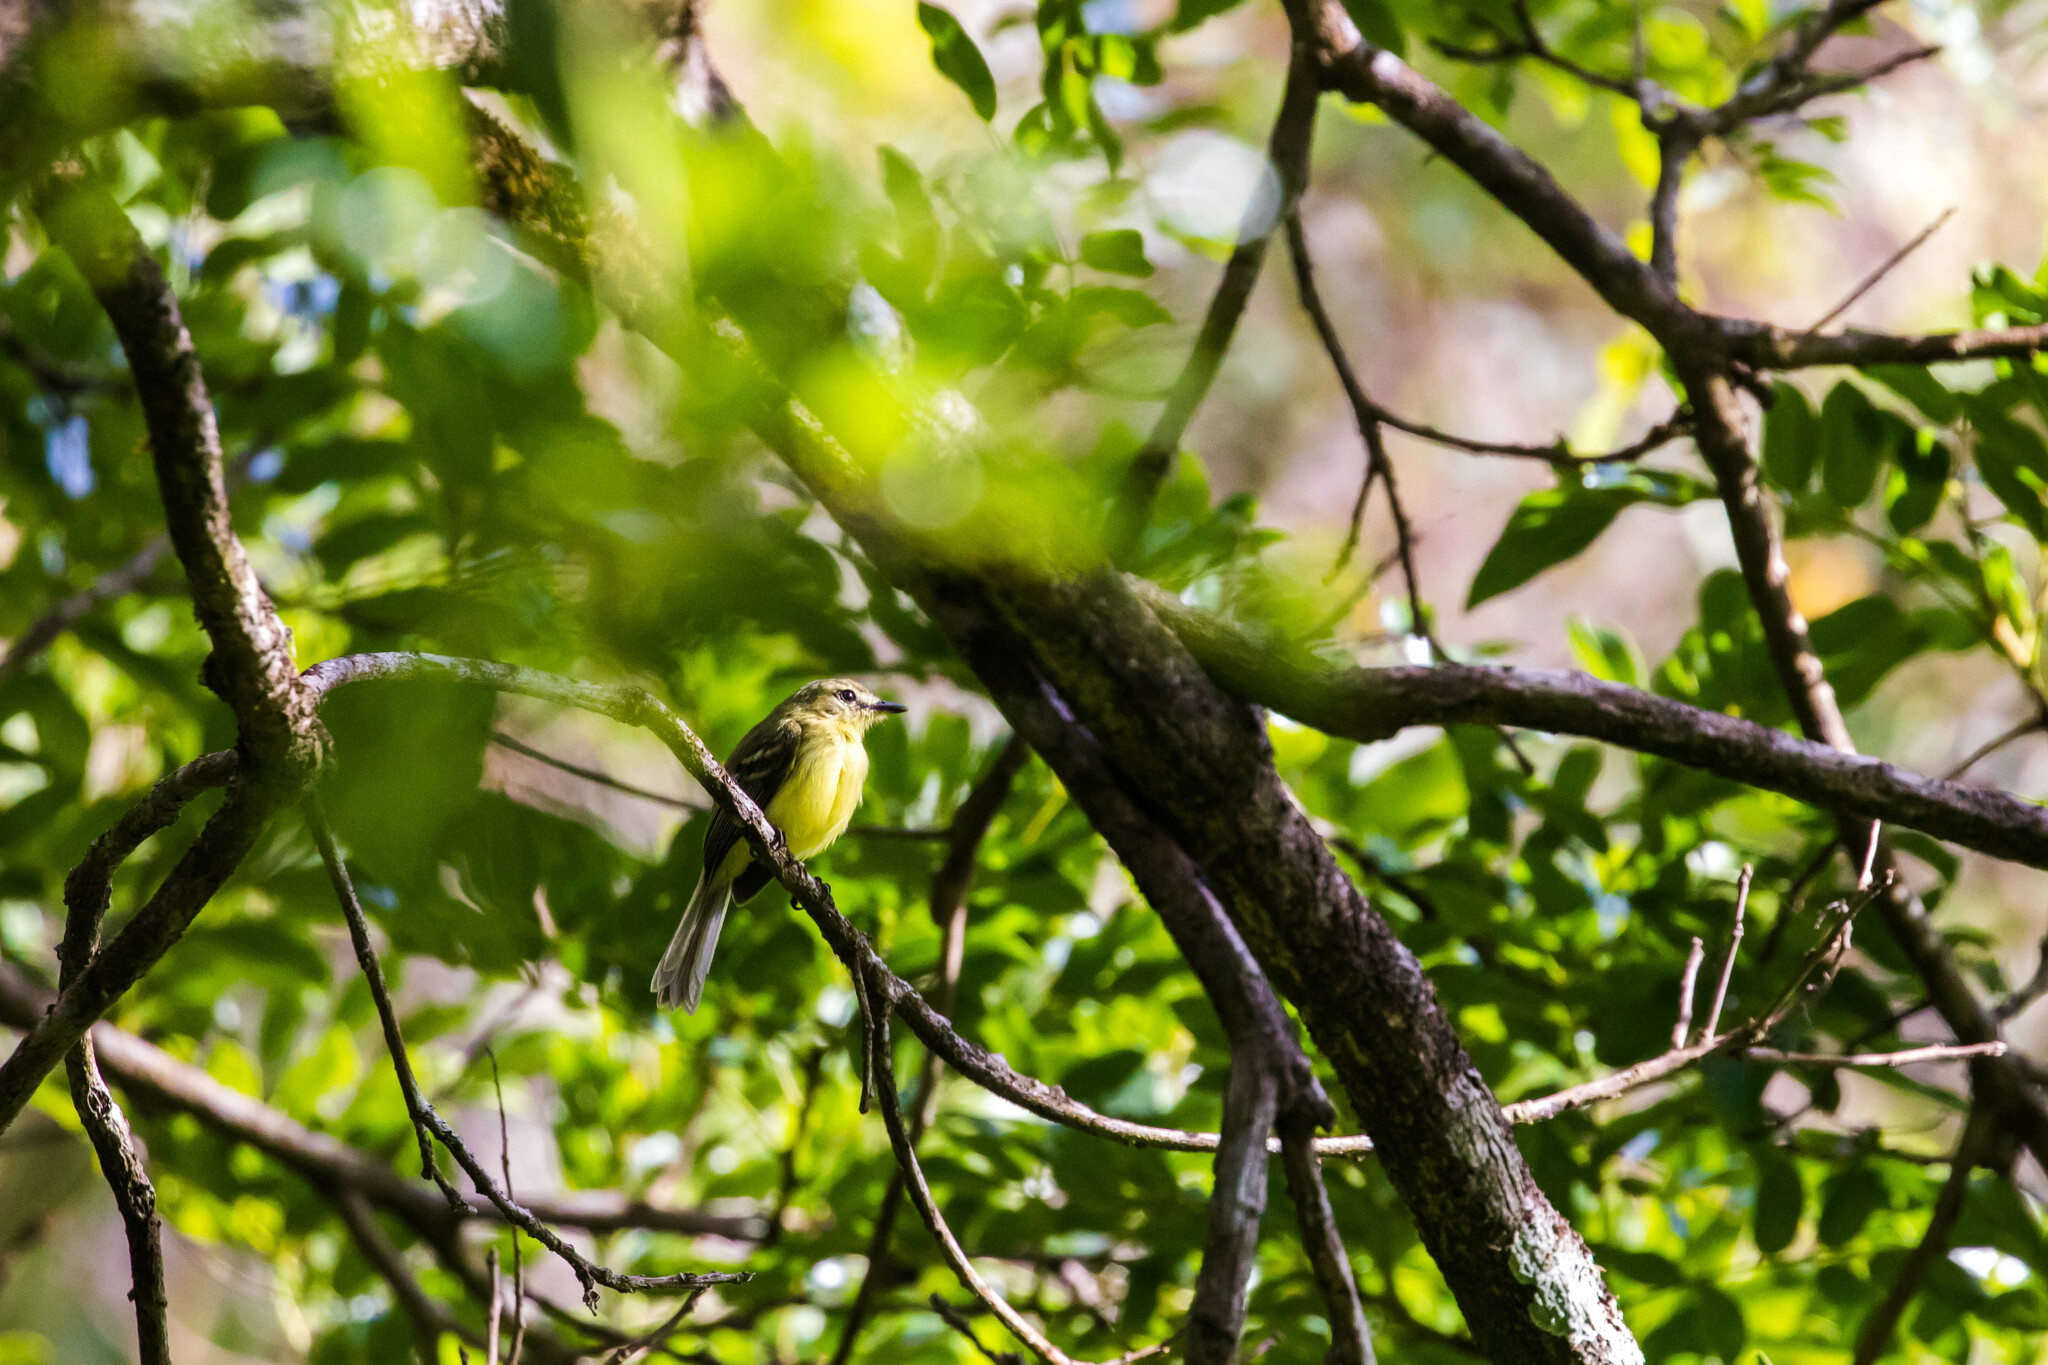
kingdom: Animalia
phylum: Chordata
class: Aves
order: Passeriformes
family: Tyrannidae
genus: Capsiempis
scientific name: Capsiempis flaveola
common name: Yellow tyrannulet
